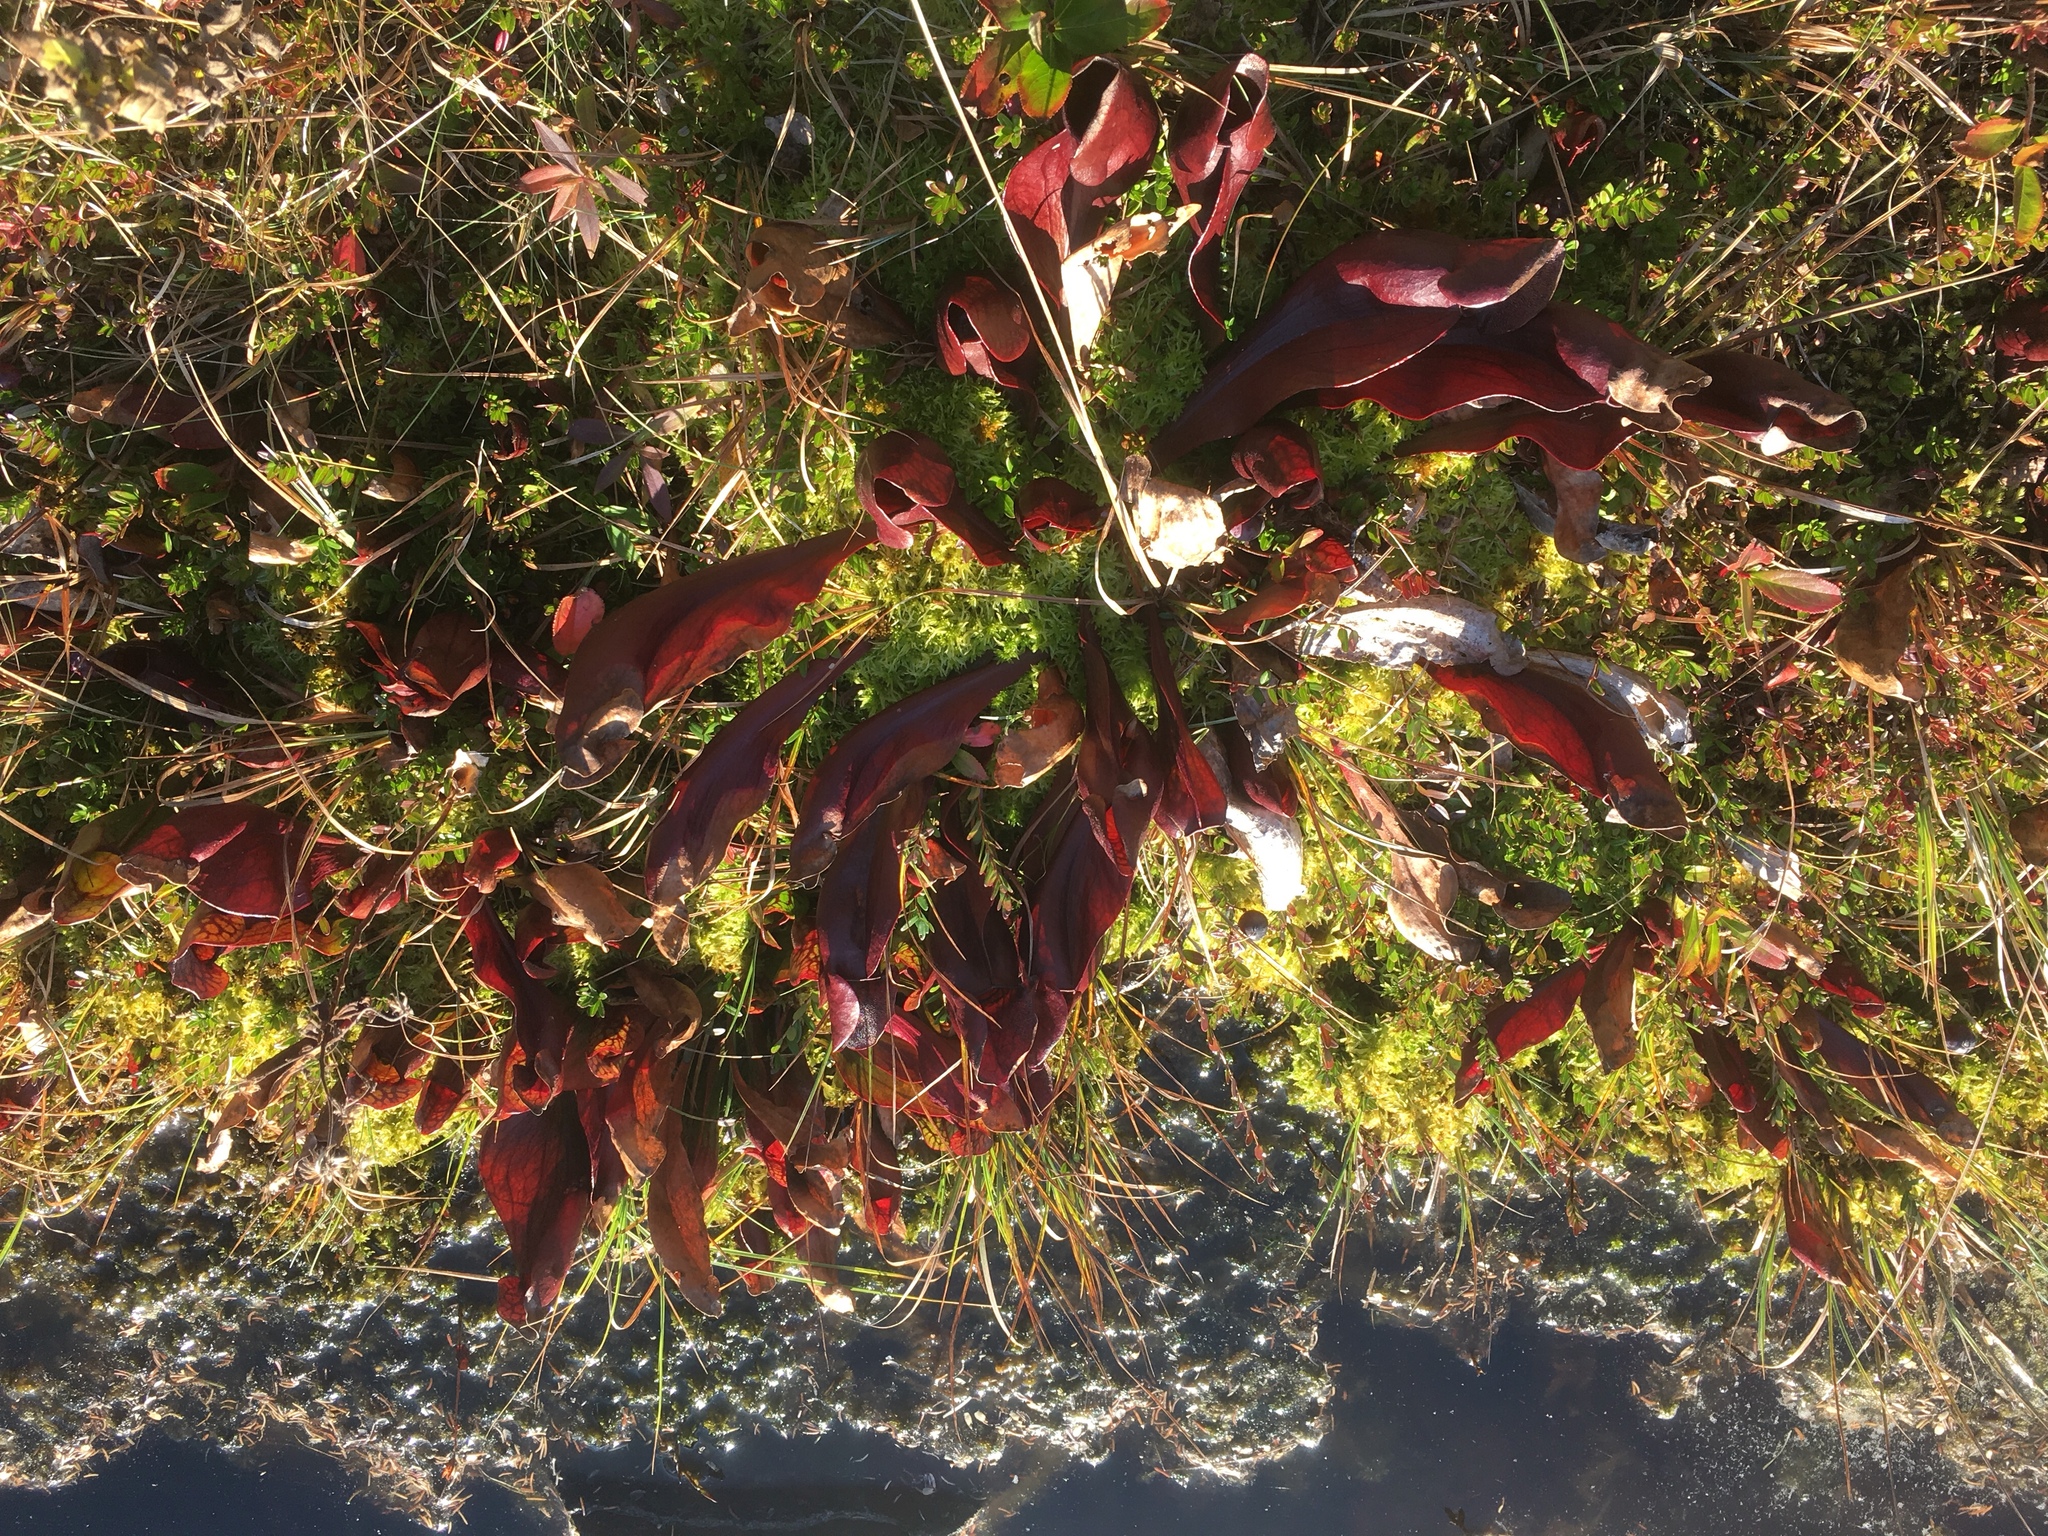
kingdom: Plantae
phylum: Tracheophyta
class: Magnoliopsida
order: Ericales
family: Sarraceniaceae
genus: Sarracenia
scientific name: Sarracenia purpurea
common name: Pitcherplant
